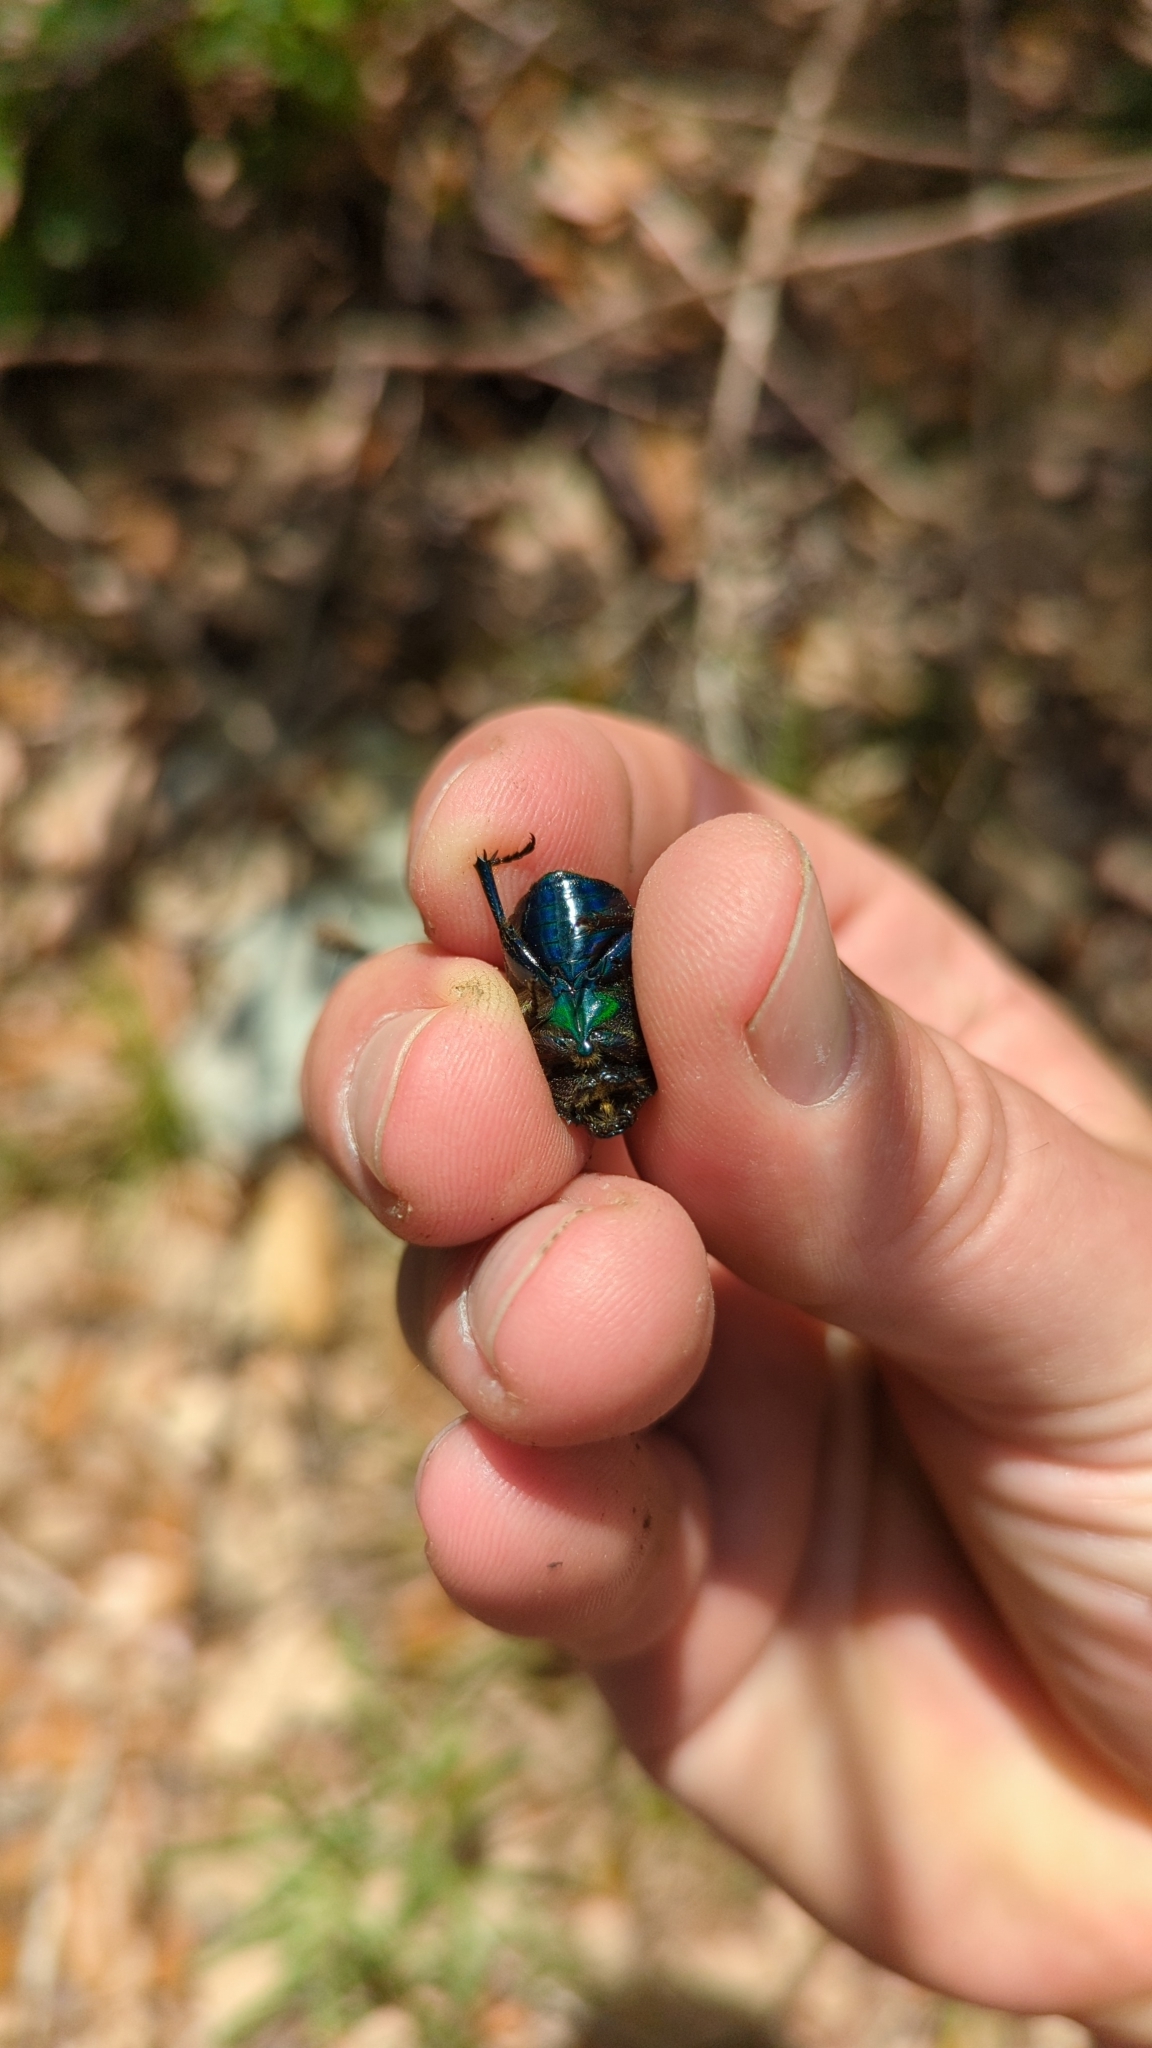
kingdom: Animalia
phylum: Arthropoda
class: Insecta
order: Coleoptera
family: Scarabaeidae
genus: Euphoria
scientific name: Euphoria fulgida
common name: Emerald euphoria
